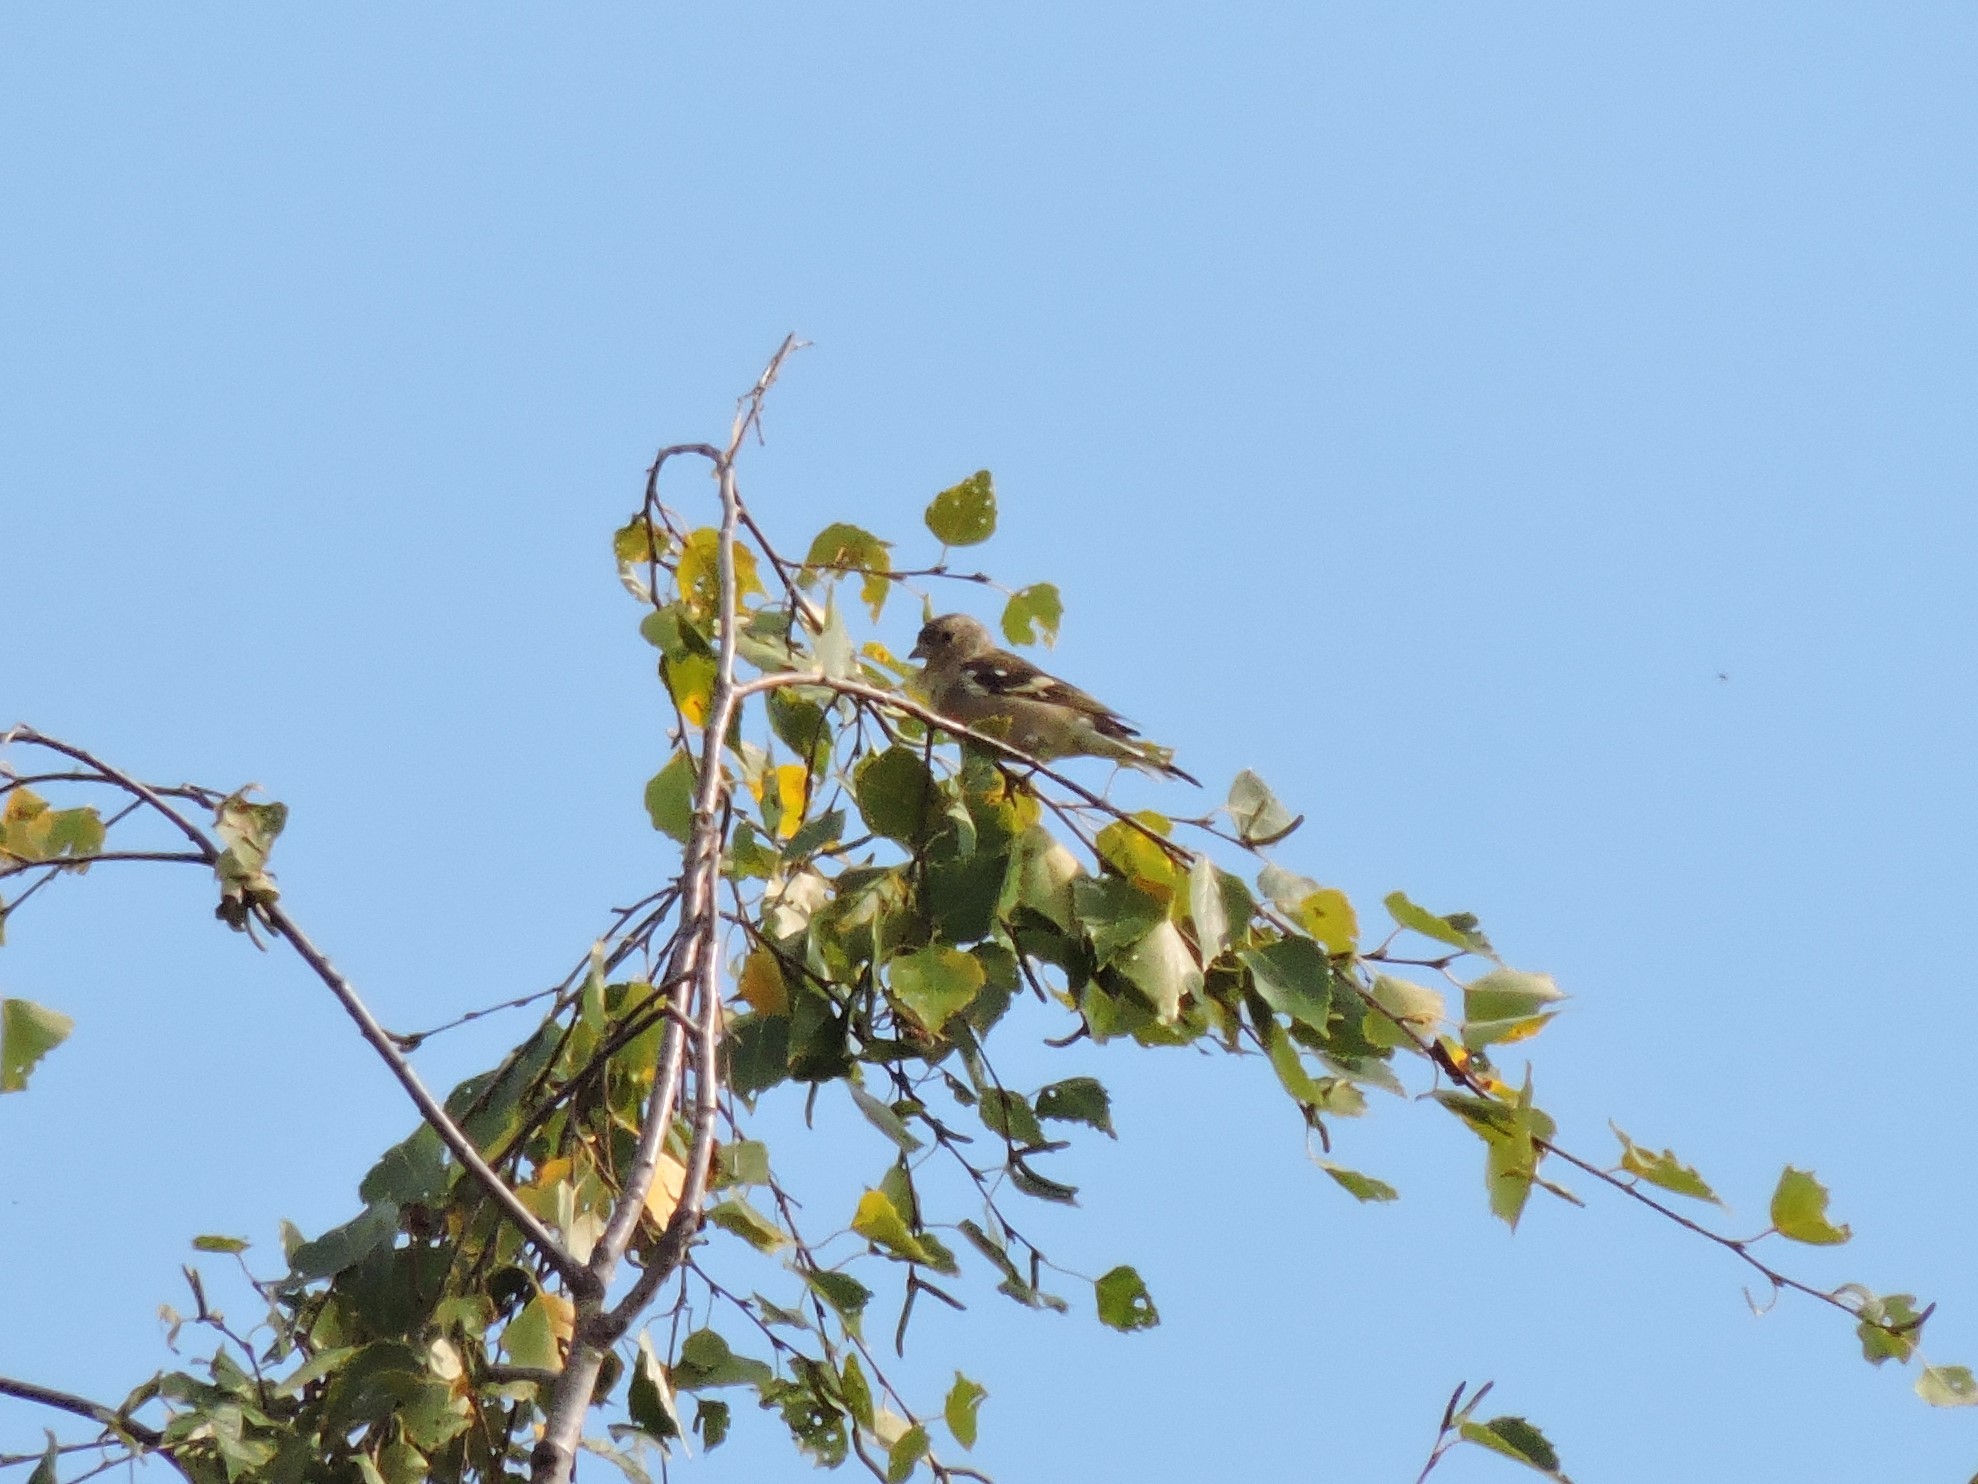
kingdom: Animalia
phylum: Chordata
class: Aves
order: Passeriformes
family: Fringillidae
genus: Fringilla
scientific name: Fringilla coelebs
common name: Common chaffinch
